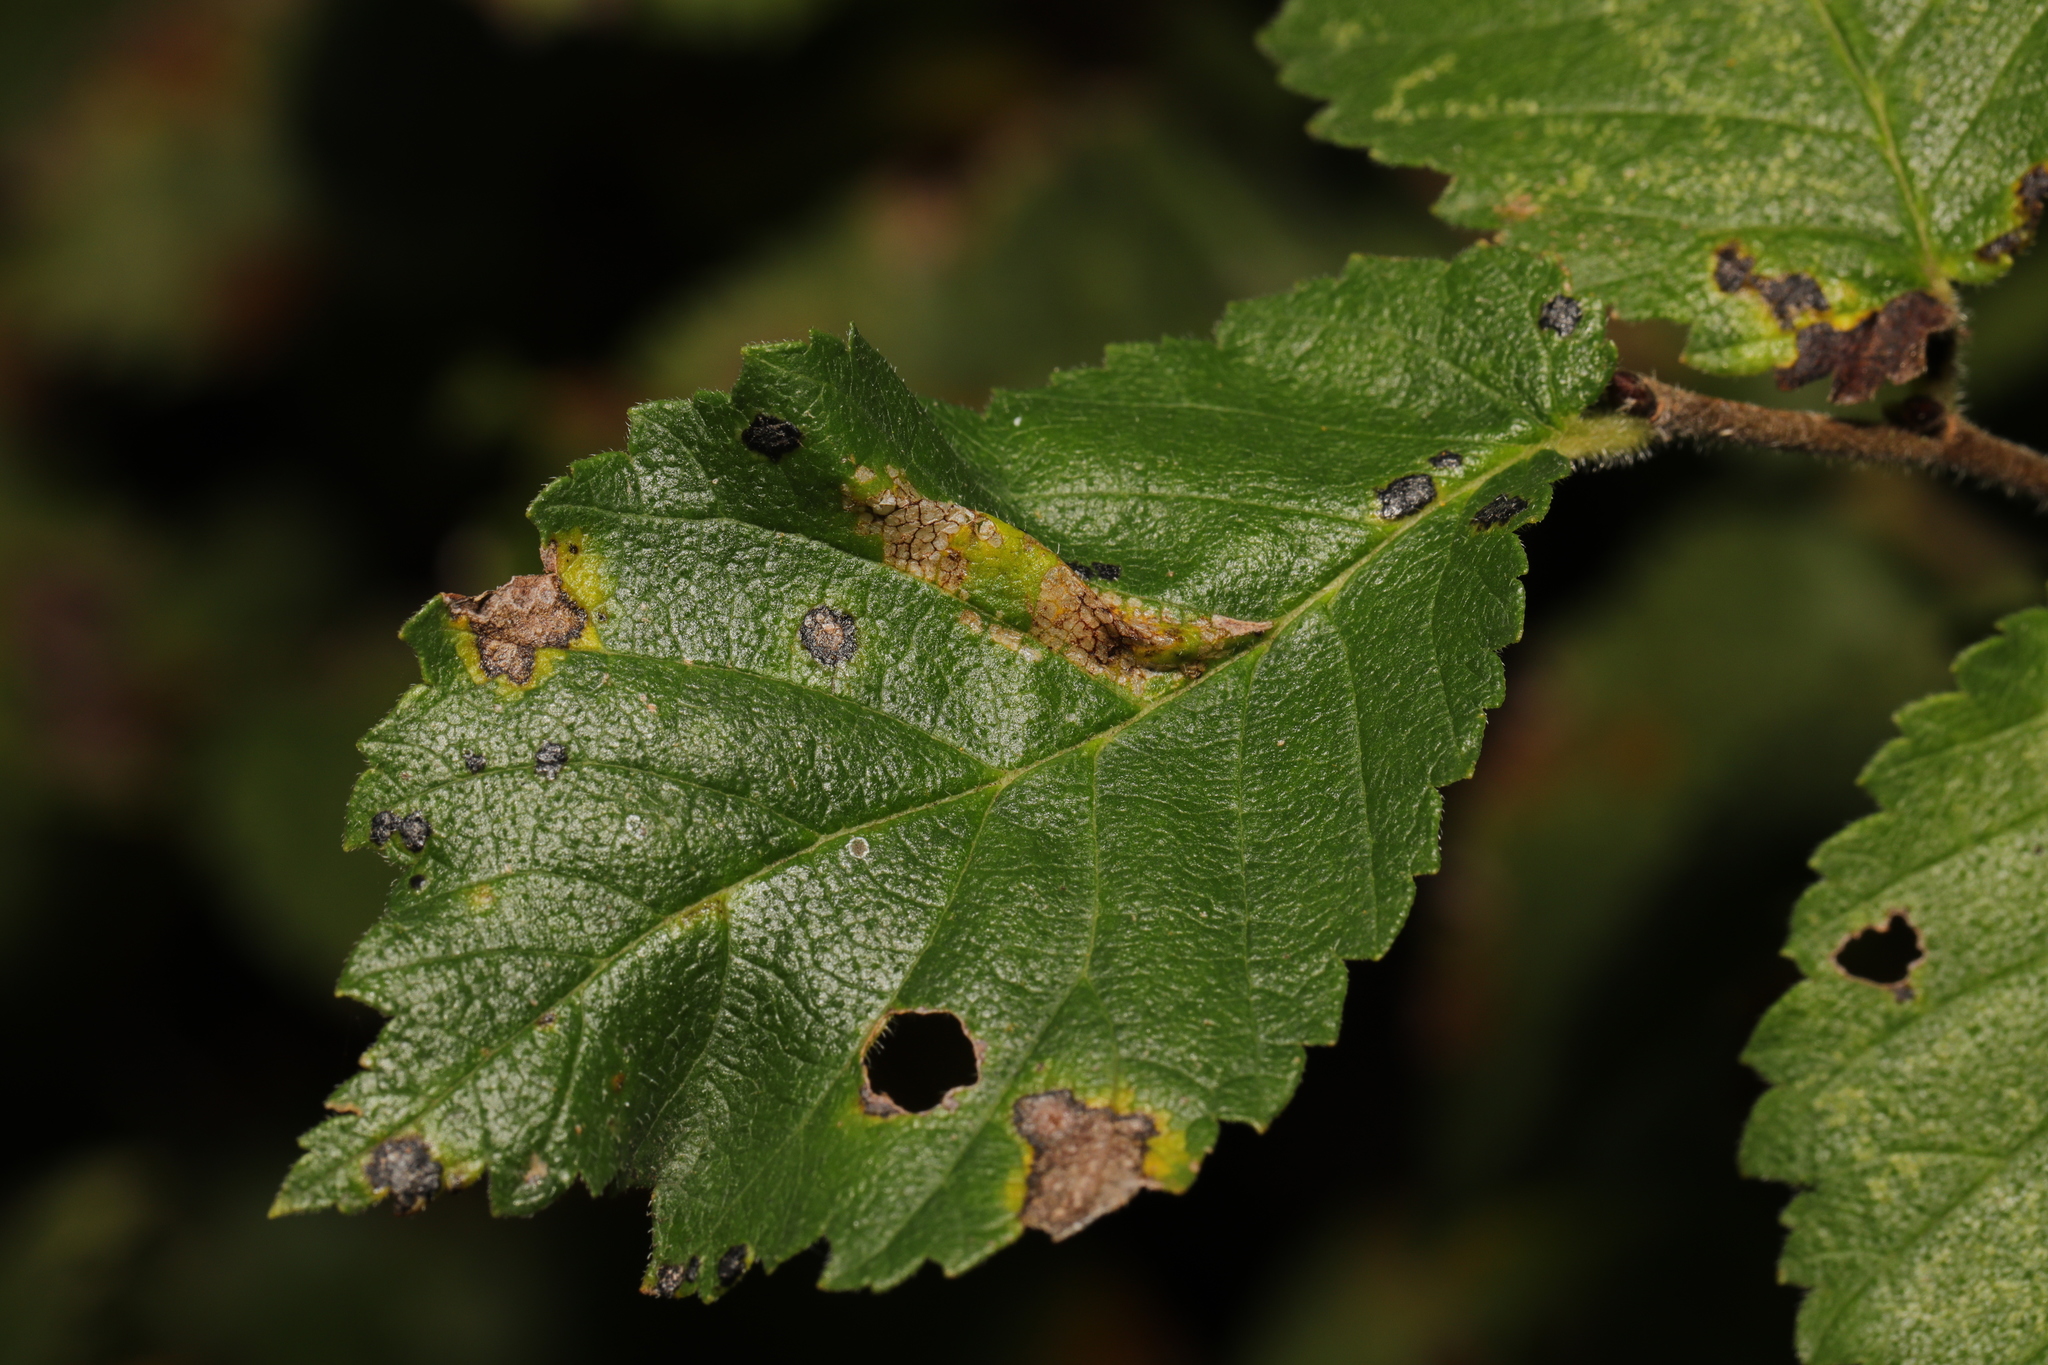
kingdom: Animalia
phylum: Arthropoda
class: Insecta
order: Lepidoptera
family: Gracillariidae
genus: Phyllonorycter
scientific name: Phyllonorycter tristrigella
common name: Elm midget
